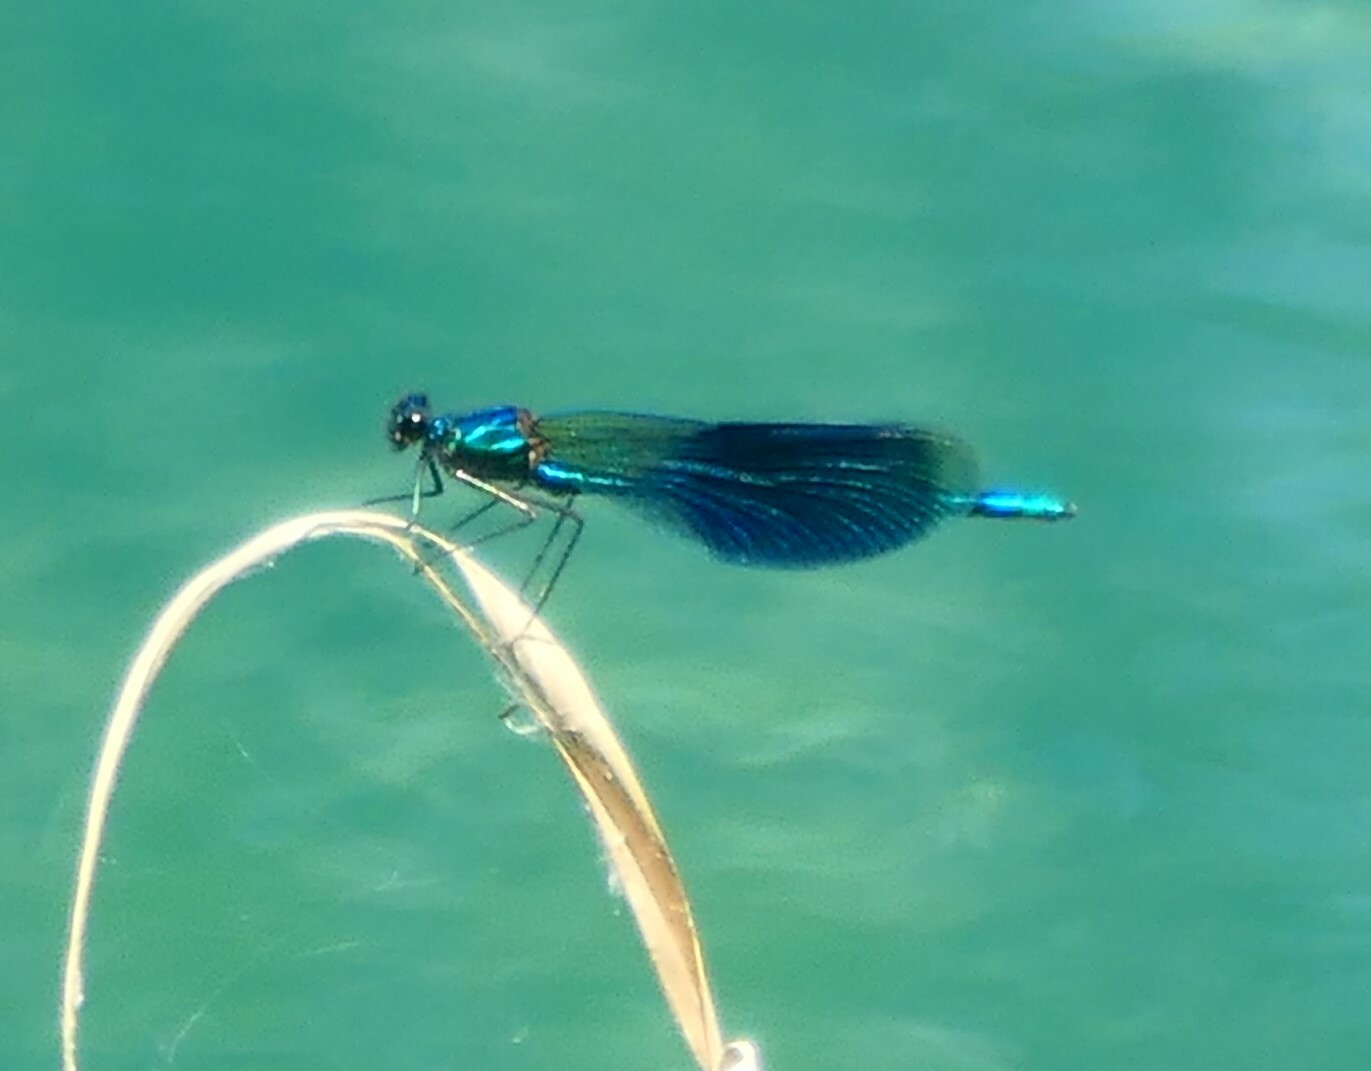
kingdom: Animalia
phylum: Arthropoda
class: Insecta
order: Odonata
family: Calopterygidae
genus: Calopteryx
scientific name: Calopteryx splendens
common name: Banded demoiselle
